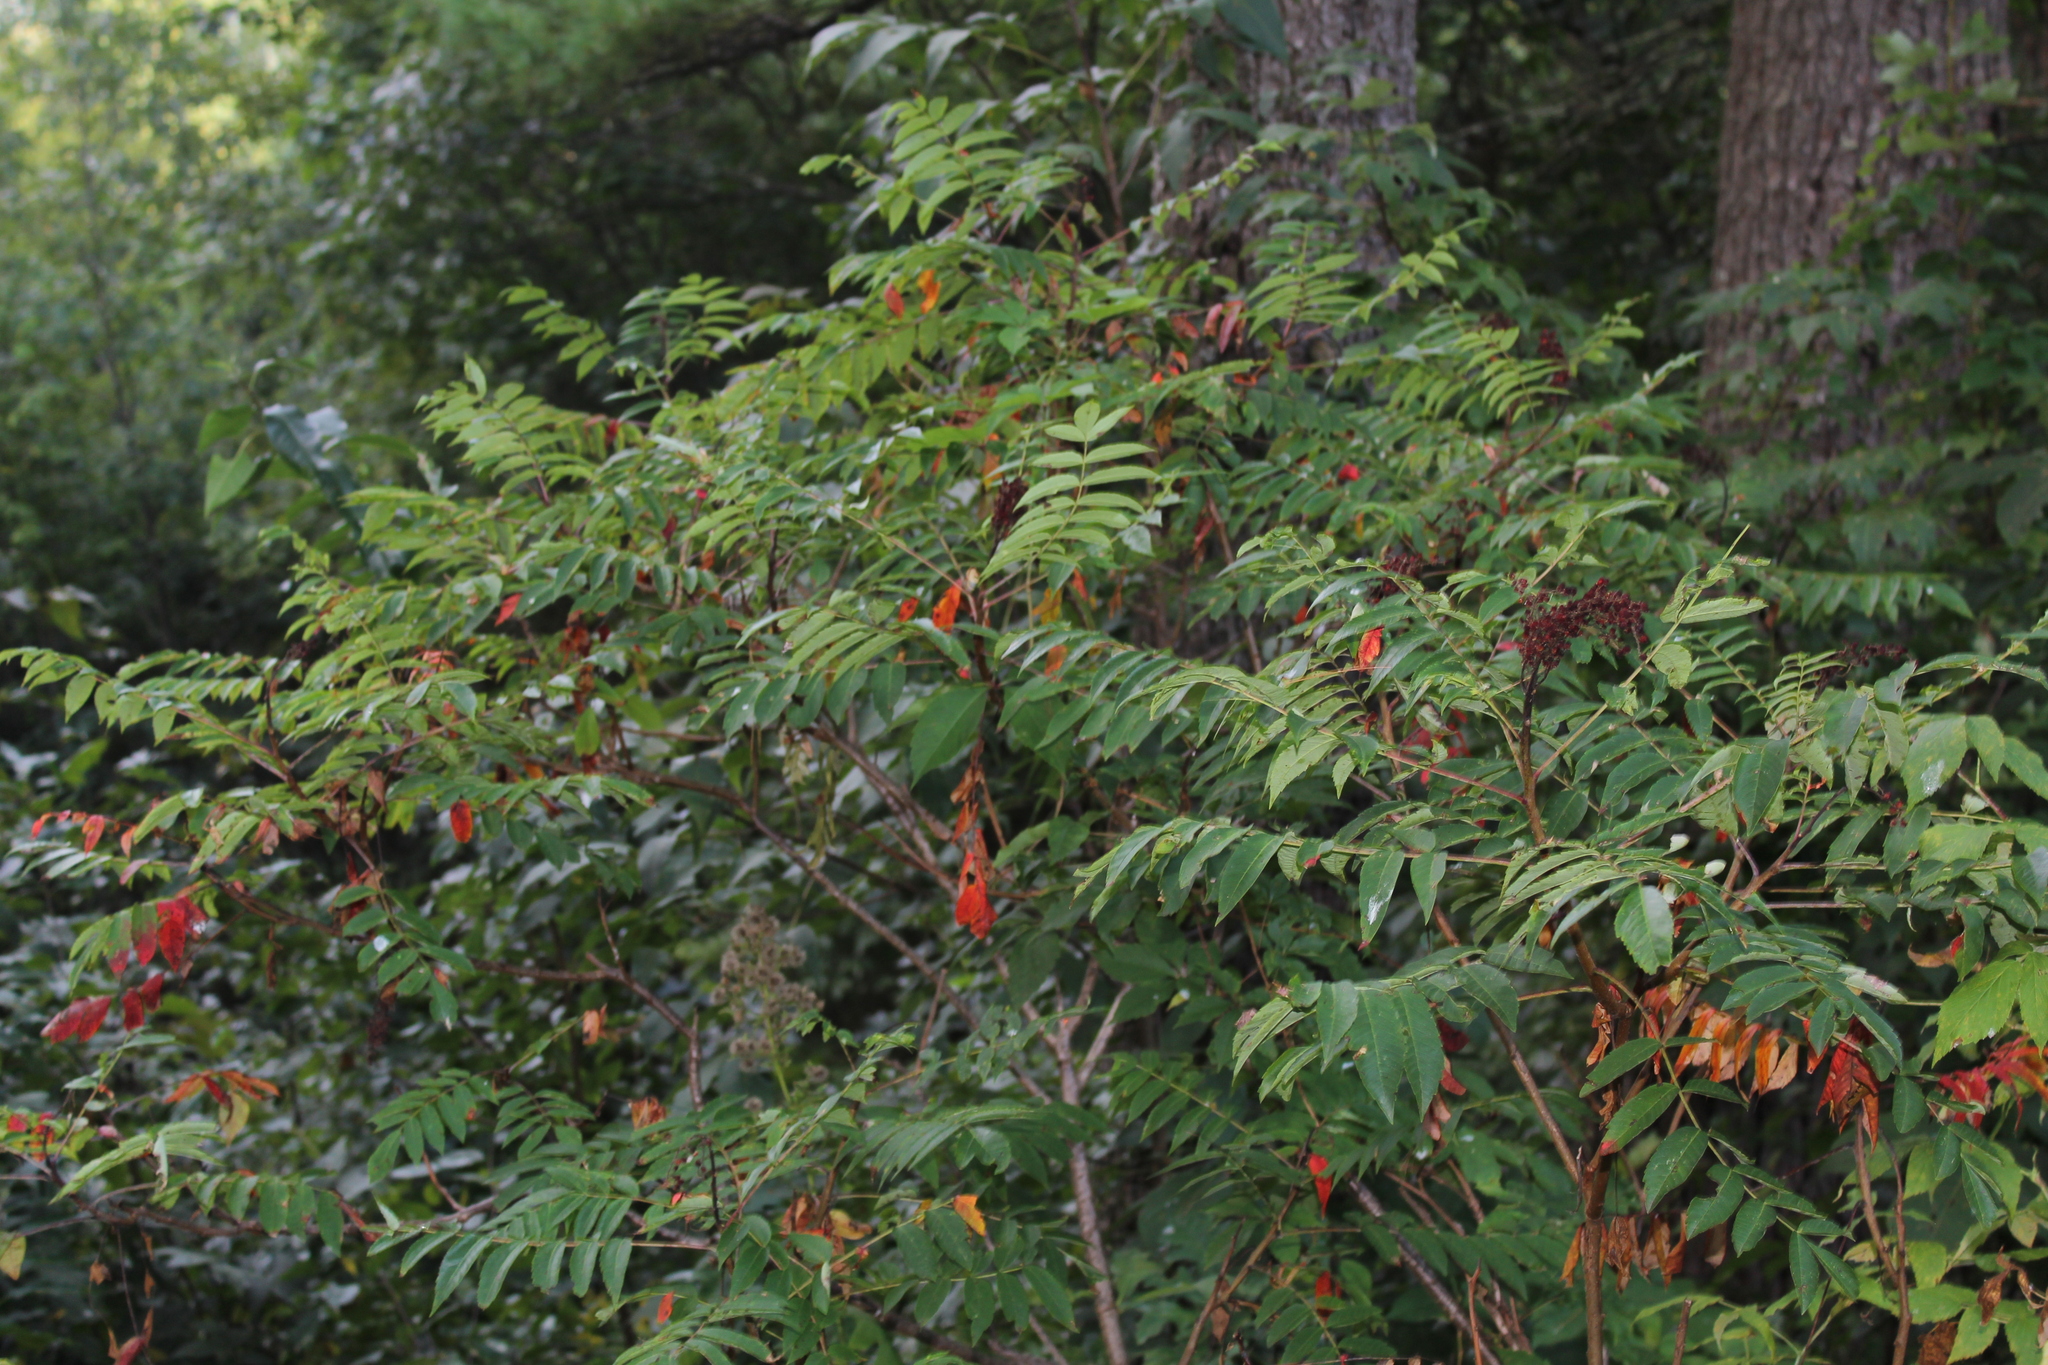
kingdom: Plantae
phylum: Tracheophyta
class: Magnoliopsida
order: Sapindales
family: Anacardiaceae
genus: Rhus
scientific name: Rhus glabra
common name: Scarlet sumac
